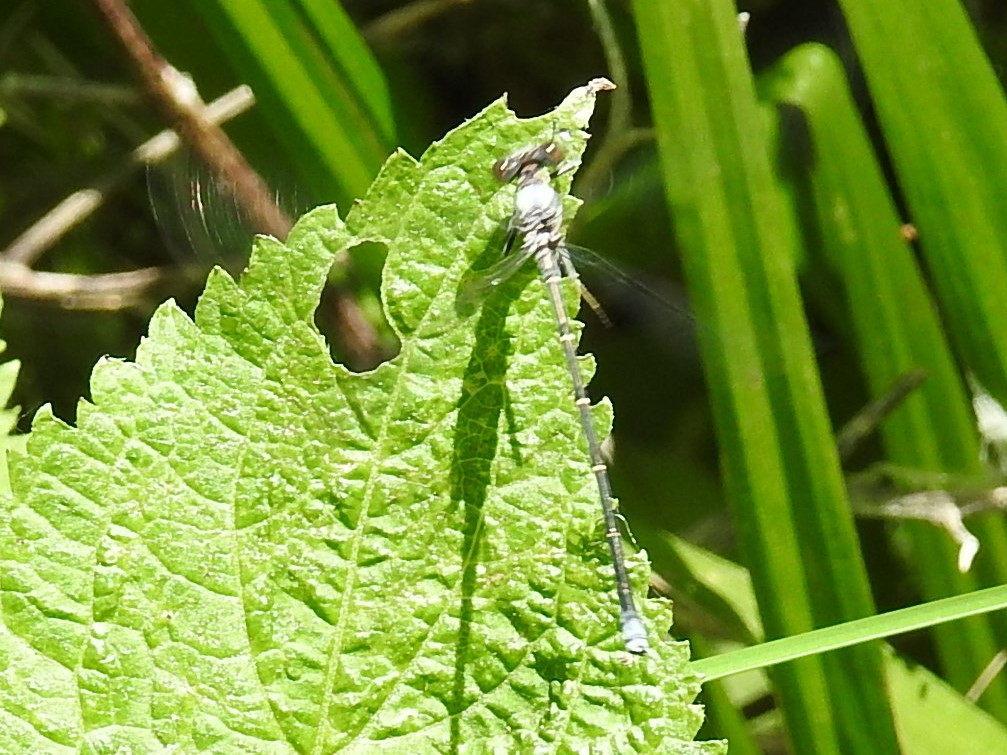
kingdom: Animalia
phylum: Arthropoda
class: Insecta
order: Odonata
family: Coenagrionidae
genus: Argia
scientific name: Argia moesta
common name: Powdered dancer
